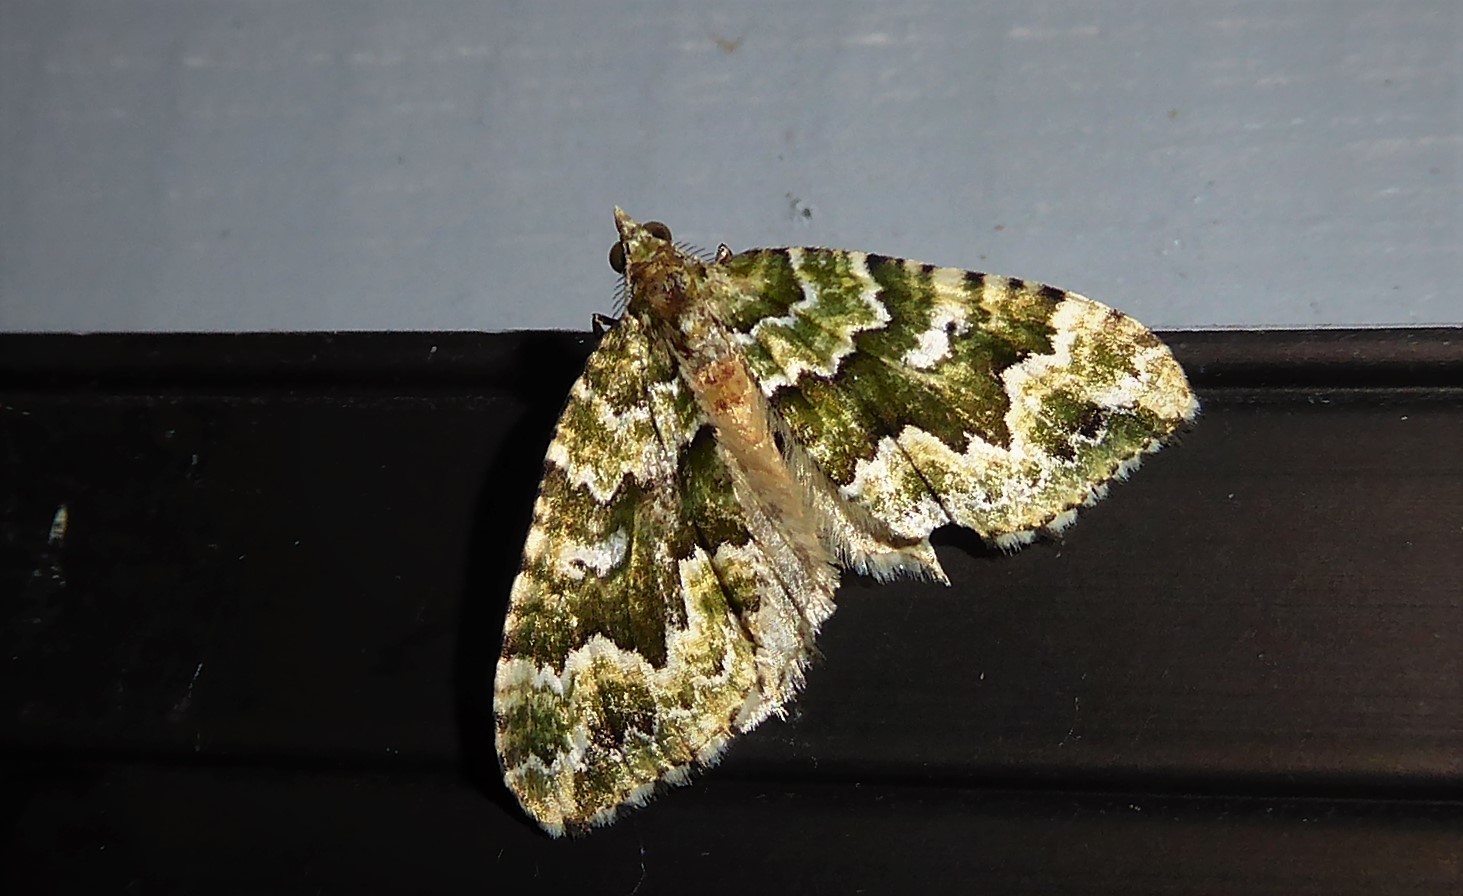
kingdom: Animalia
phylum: Arthropoda
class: Insecta
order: Lepidoptera
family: Geometridae
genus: Asaphodes
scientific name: Asaphodes beata
